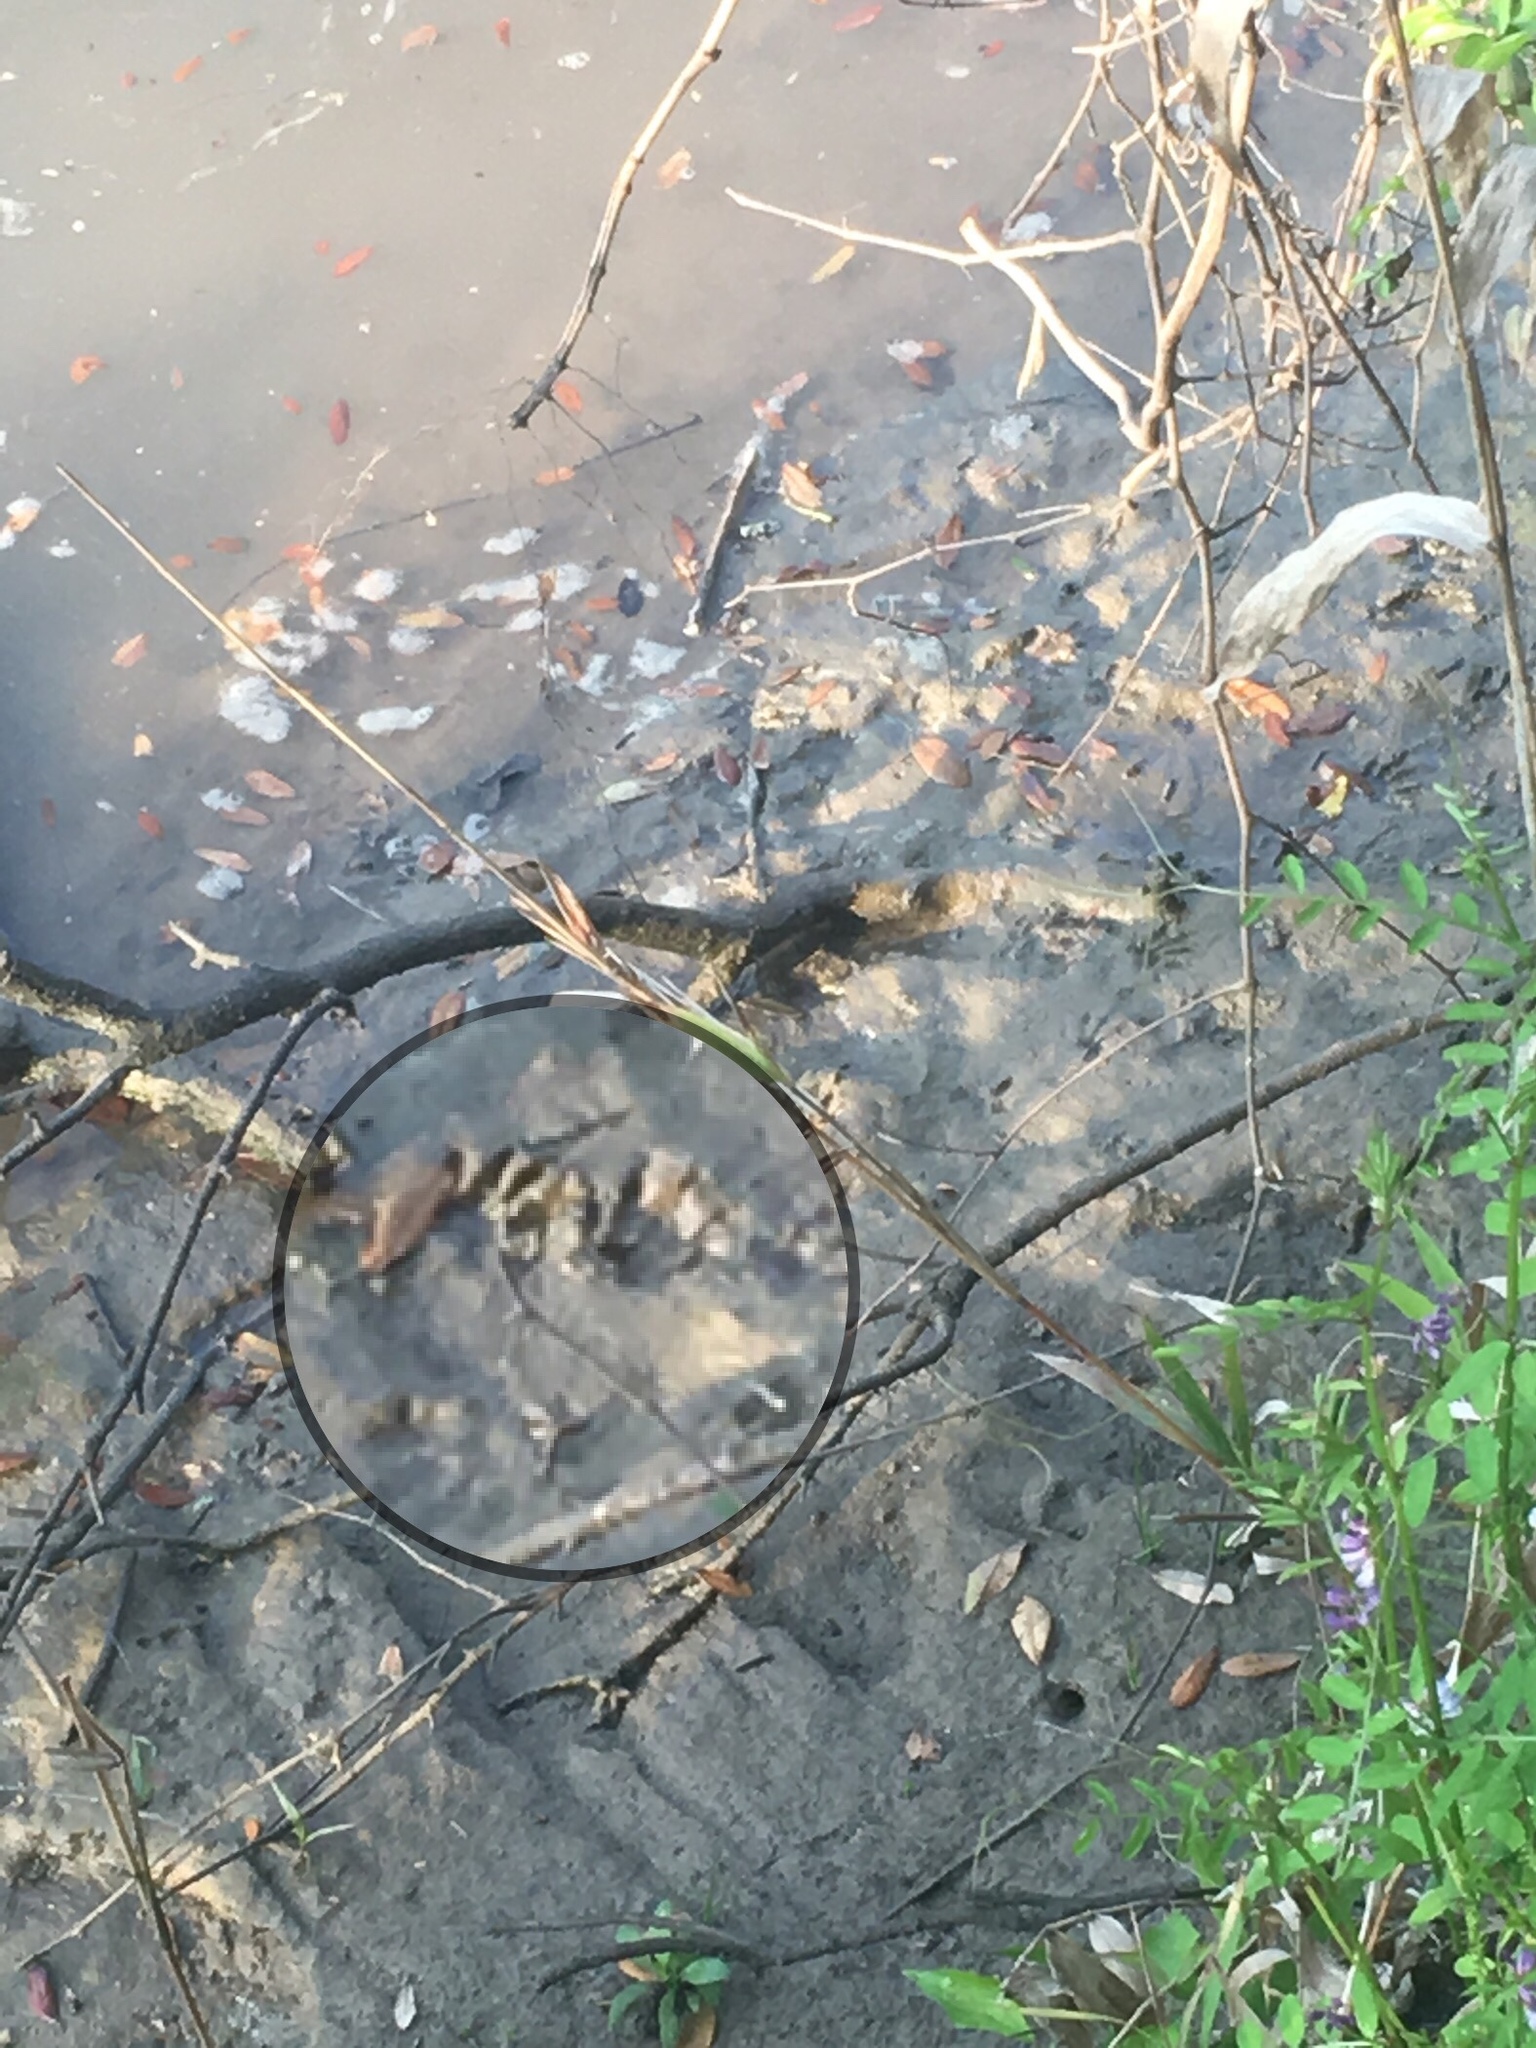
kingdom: Animalia
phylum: Chordata
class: Mammalia
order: Carnivora
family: Procyonidae
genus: Procyon
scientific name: Procyon lotor
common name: Raccoon
